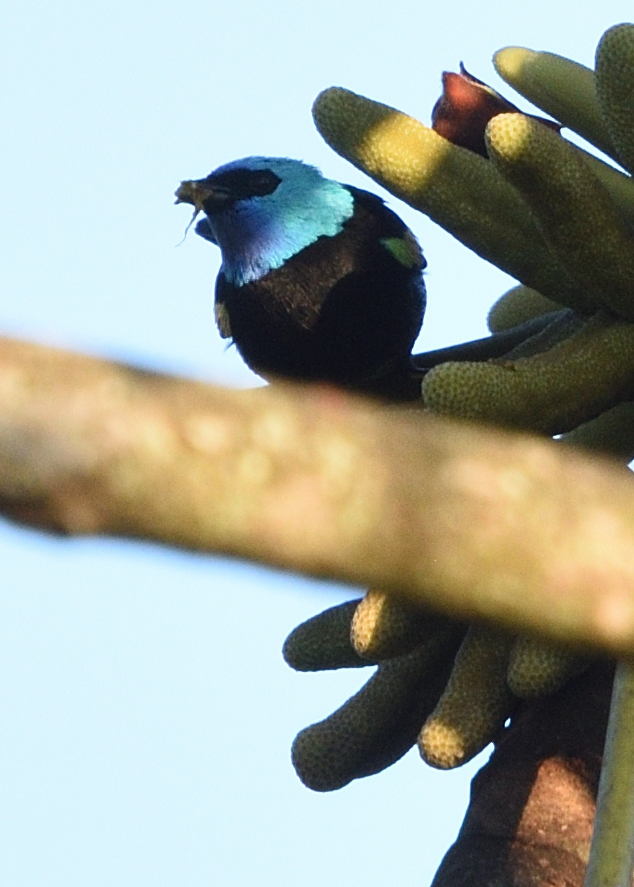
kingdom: Animalia
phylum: Chordata
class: Aves
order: Passeriformes
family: Thraupidae
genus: Stilpnia
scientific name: Stilpnia cyanicollis
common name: Blue-necked tanager
